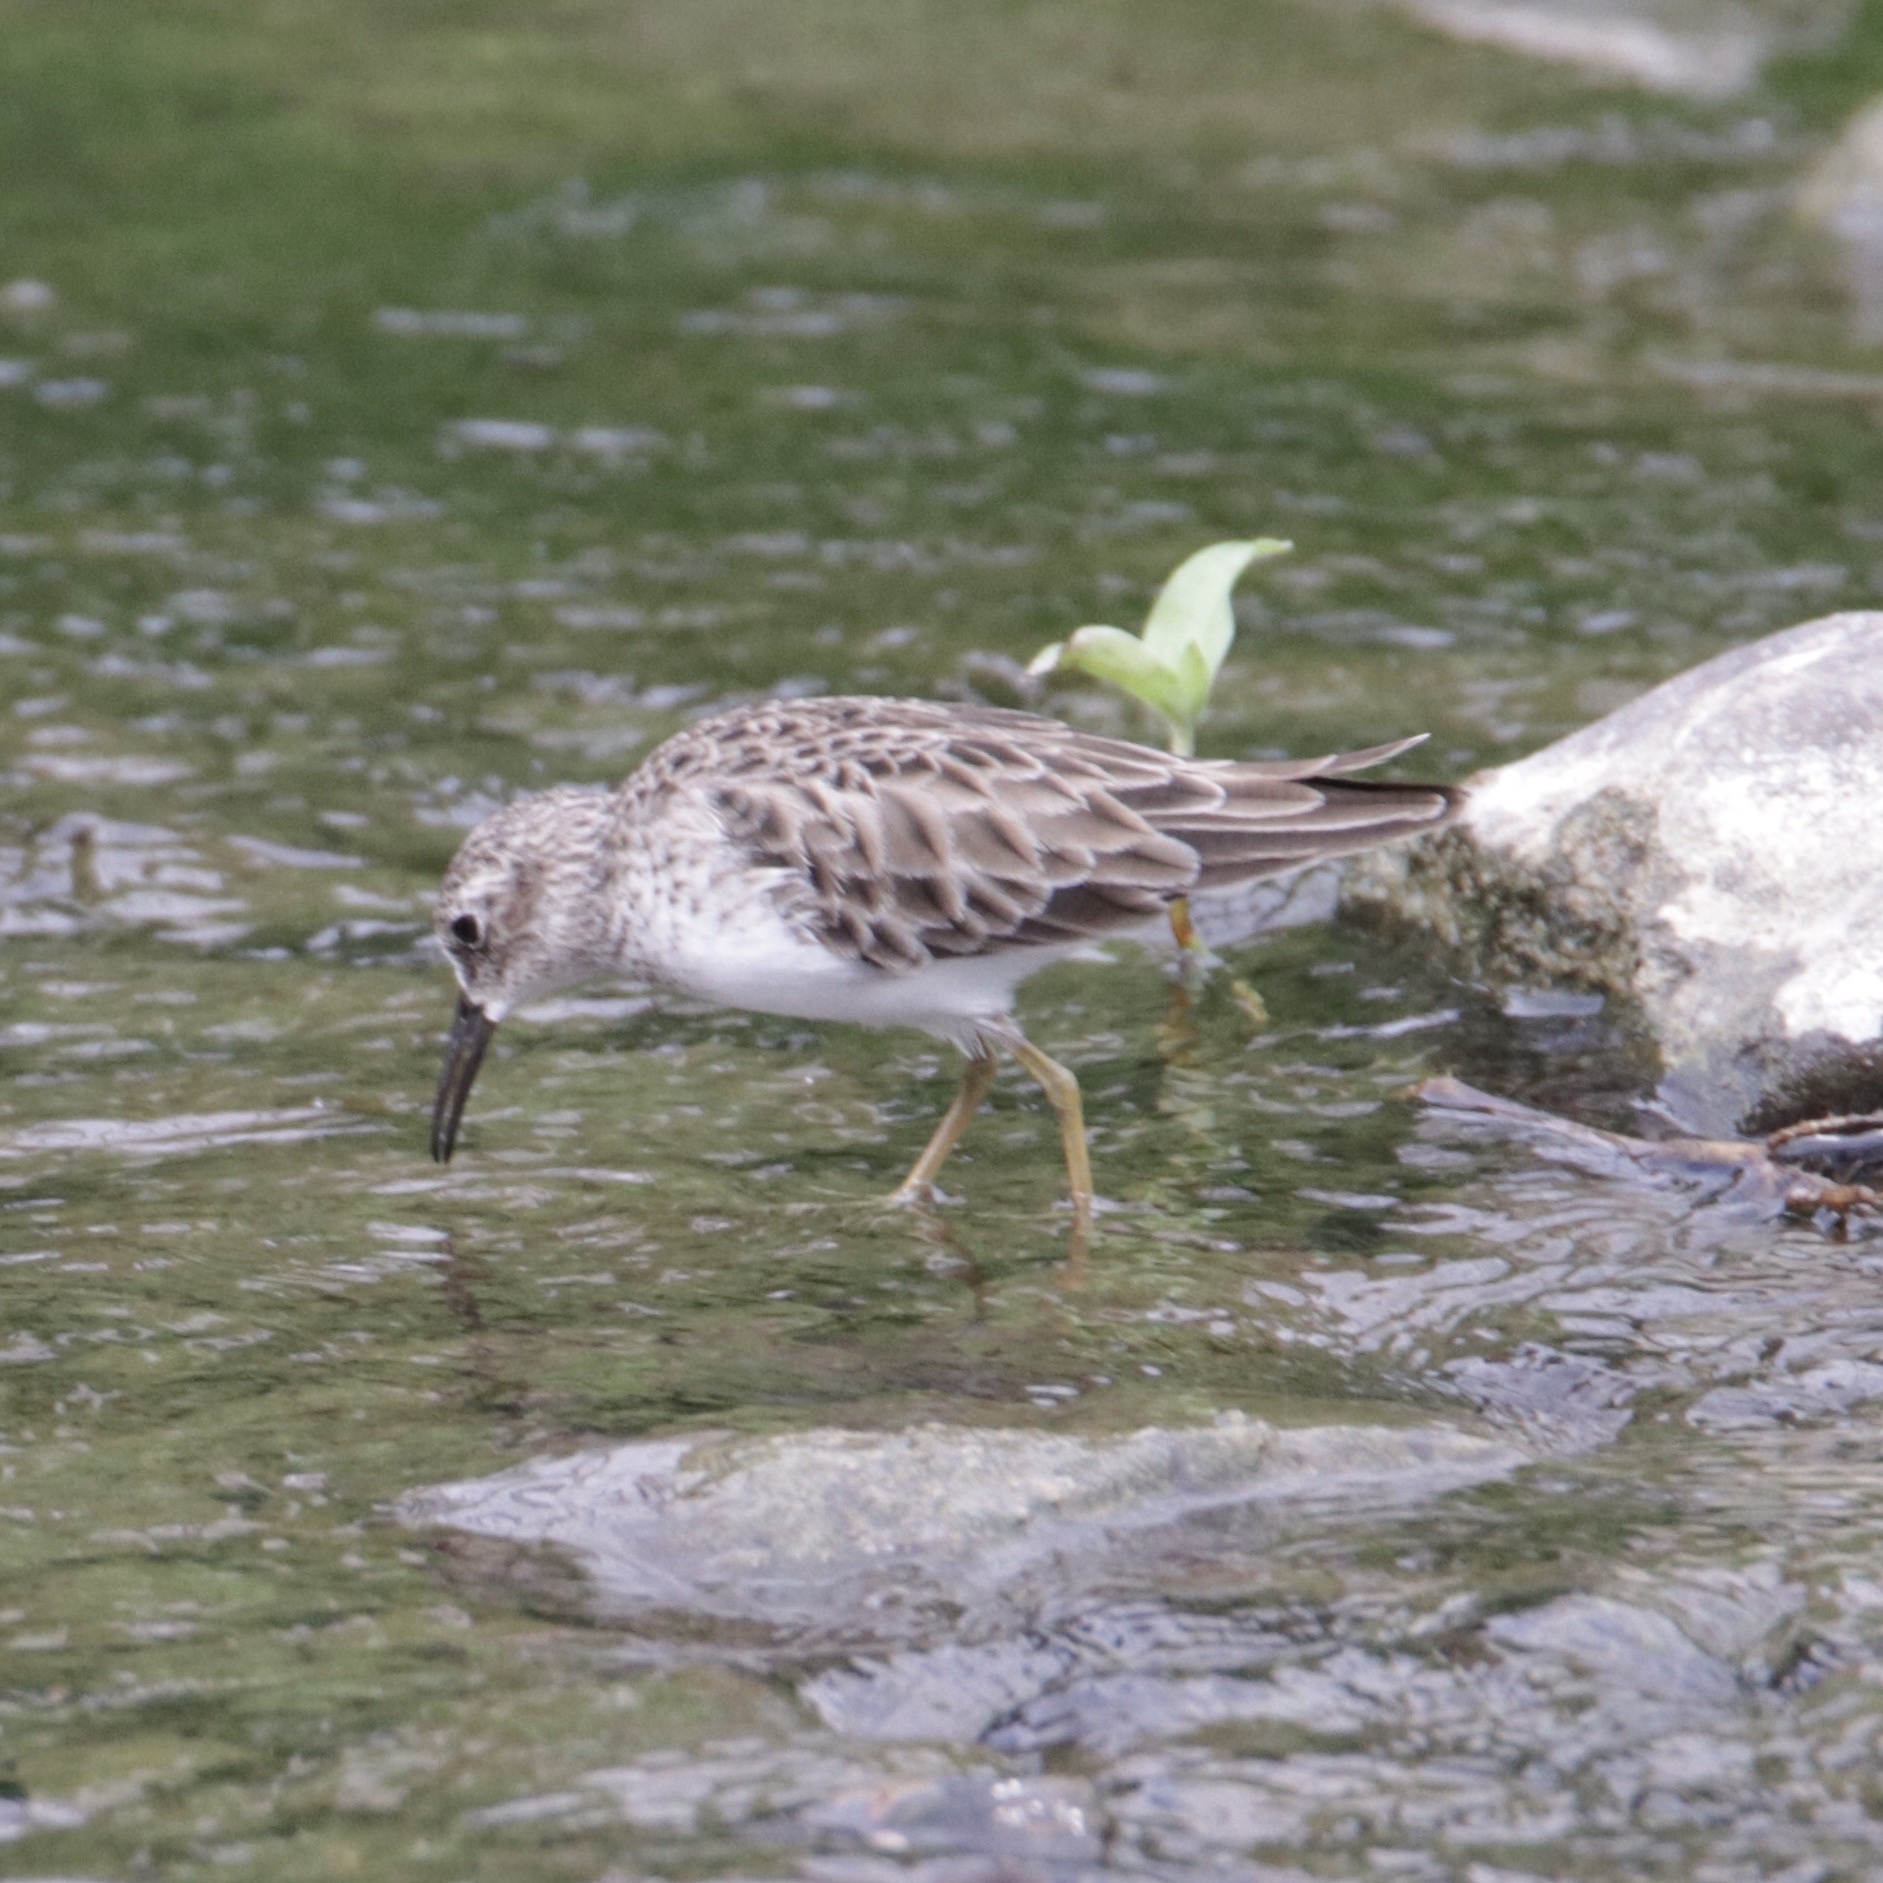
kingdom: Animalia
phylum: Chordata
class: Aves
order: Charadriiformes
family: Scolopacidae
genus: Calidris
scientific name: Calidris minutilla
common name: Least sandpiper
